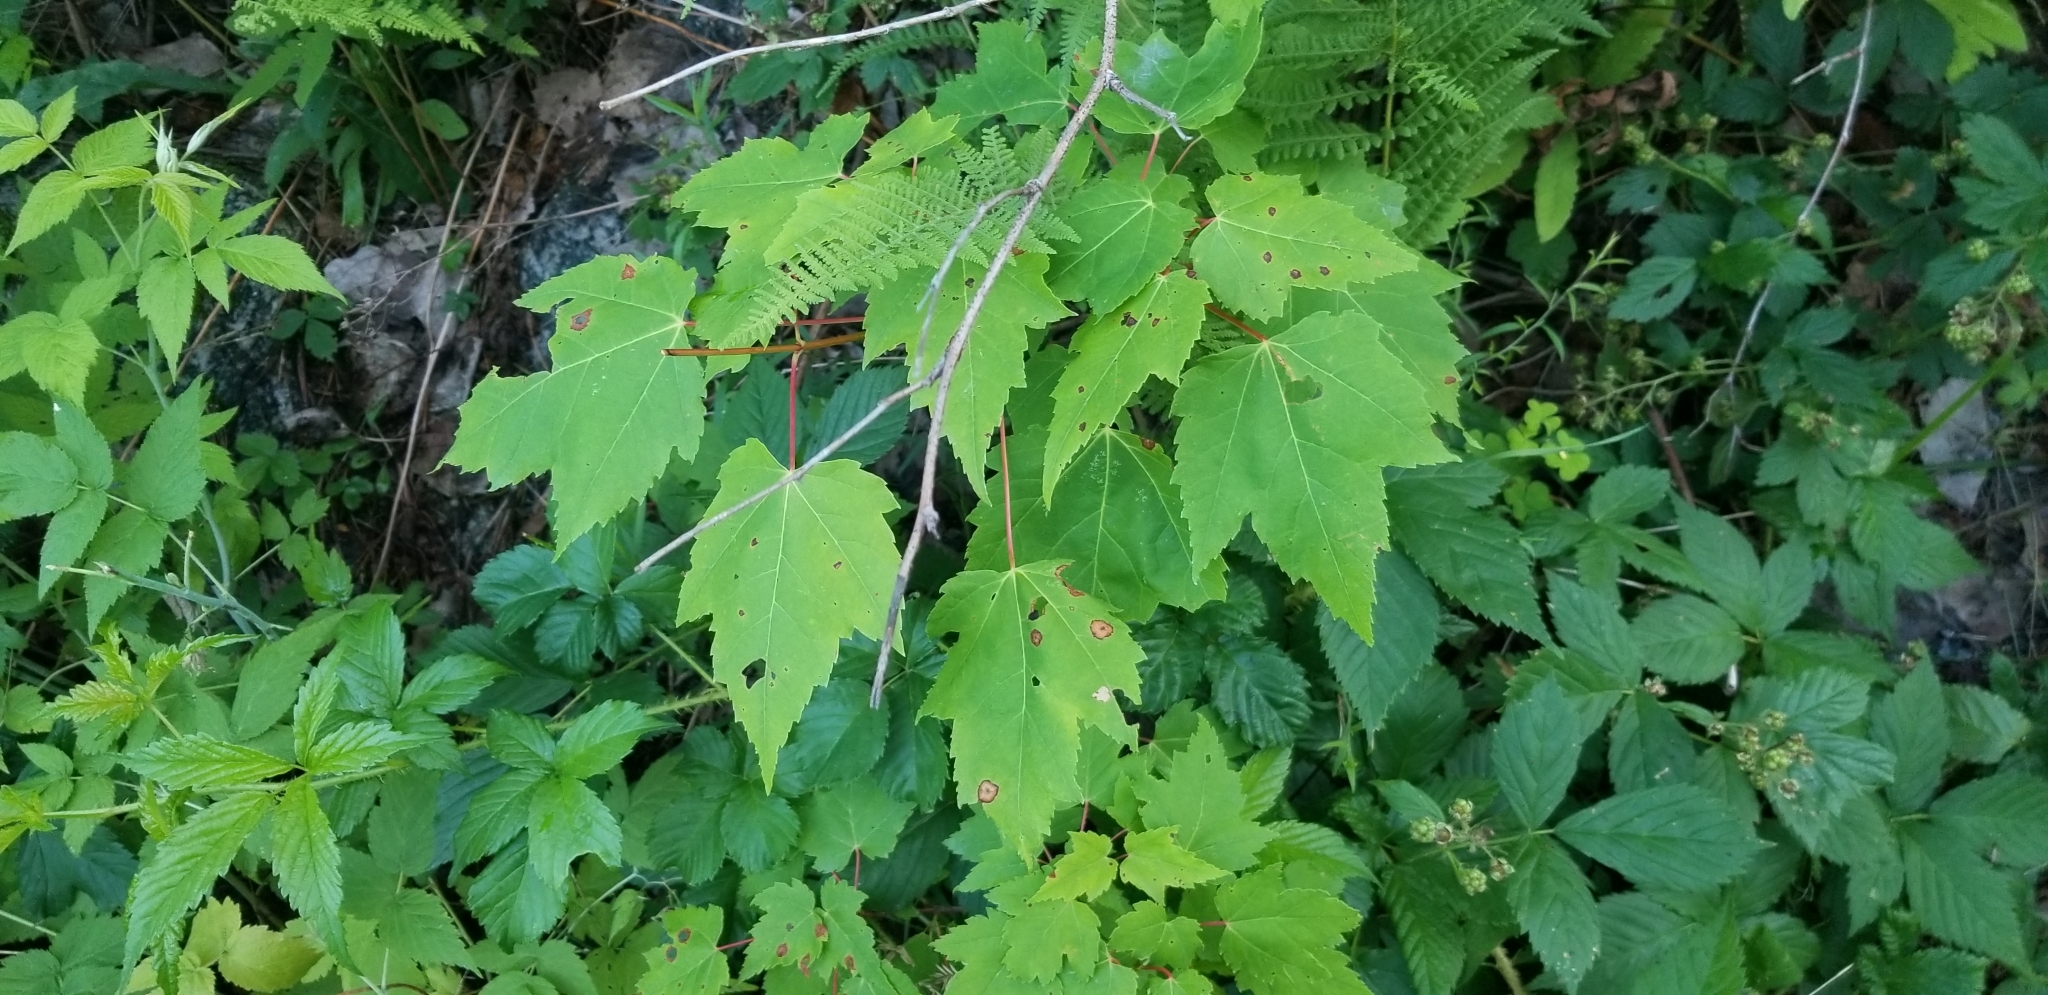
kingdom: Plantae
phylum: Tracheophyta
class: Magnoliopsida
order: Sapindales
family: Sapindaceae
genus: Acer
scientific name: Acer rubrum
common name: Red maple
